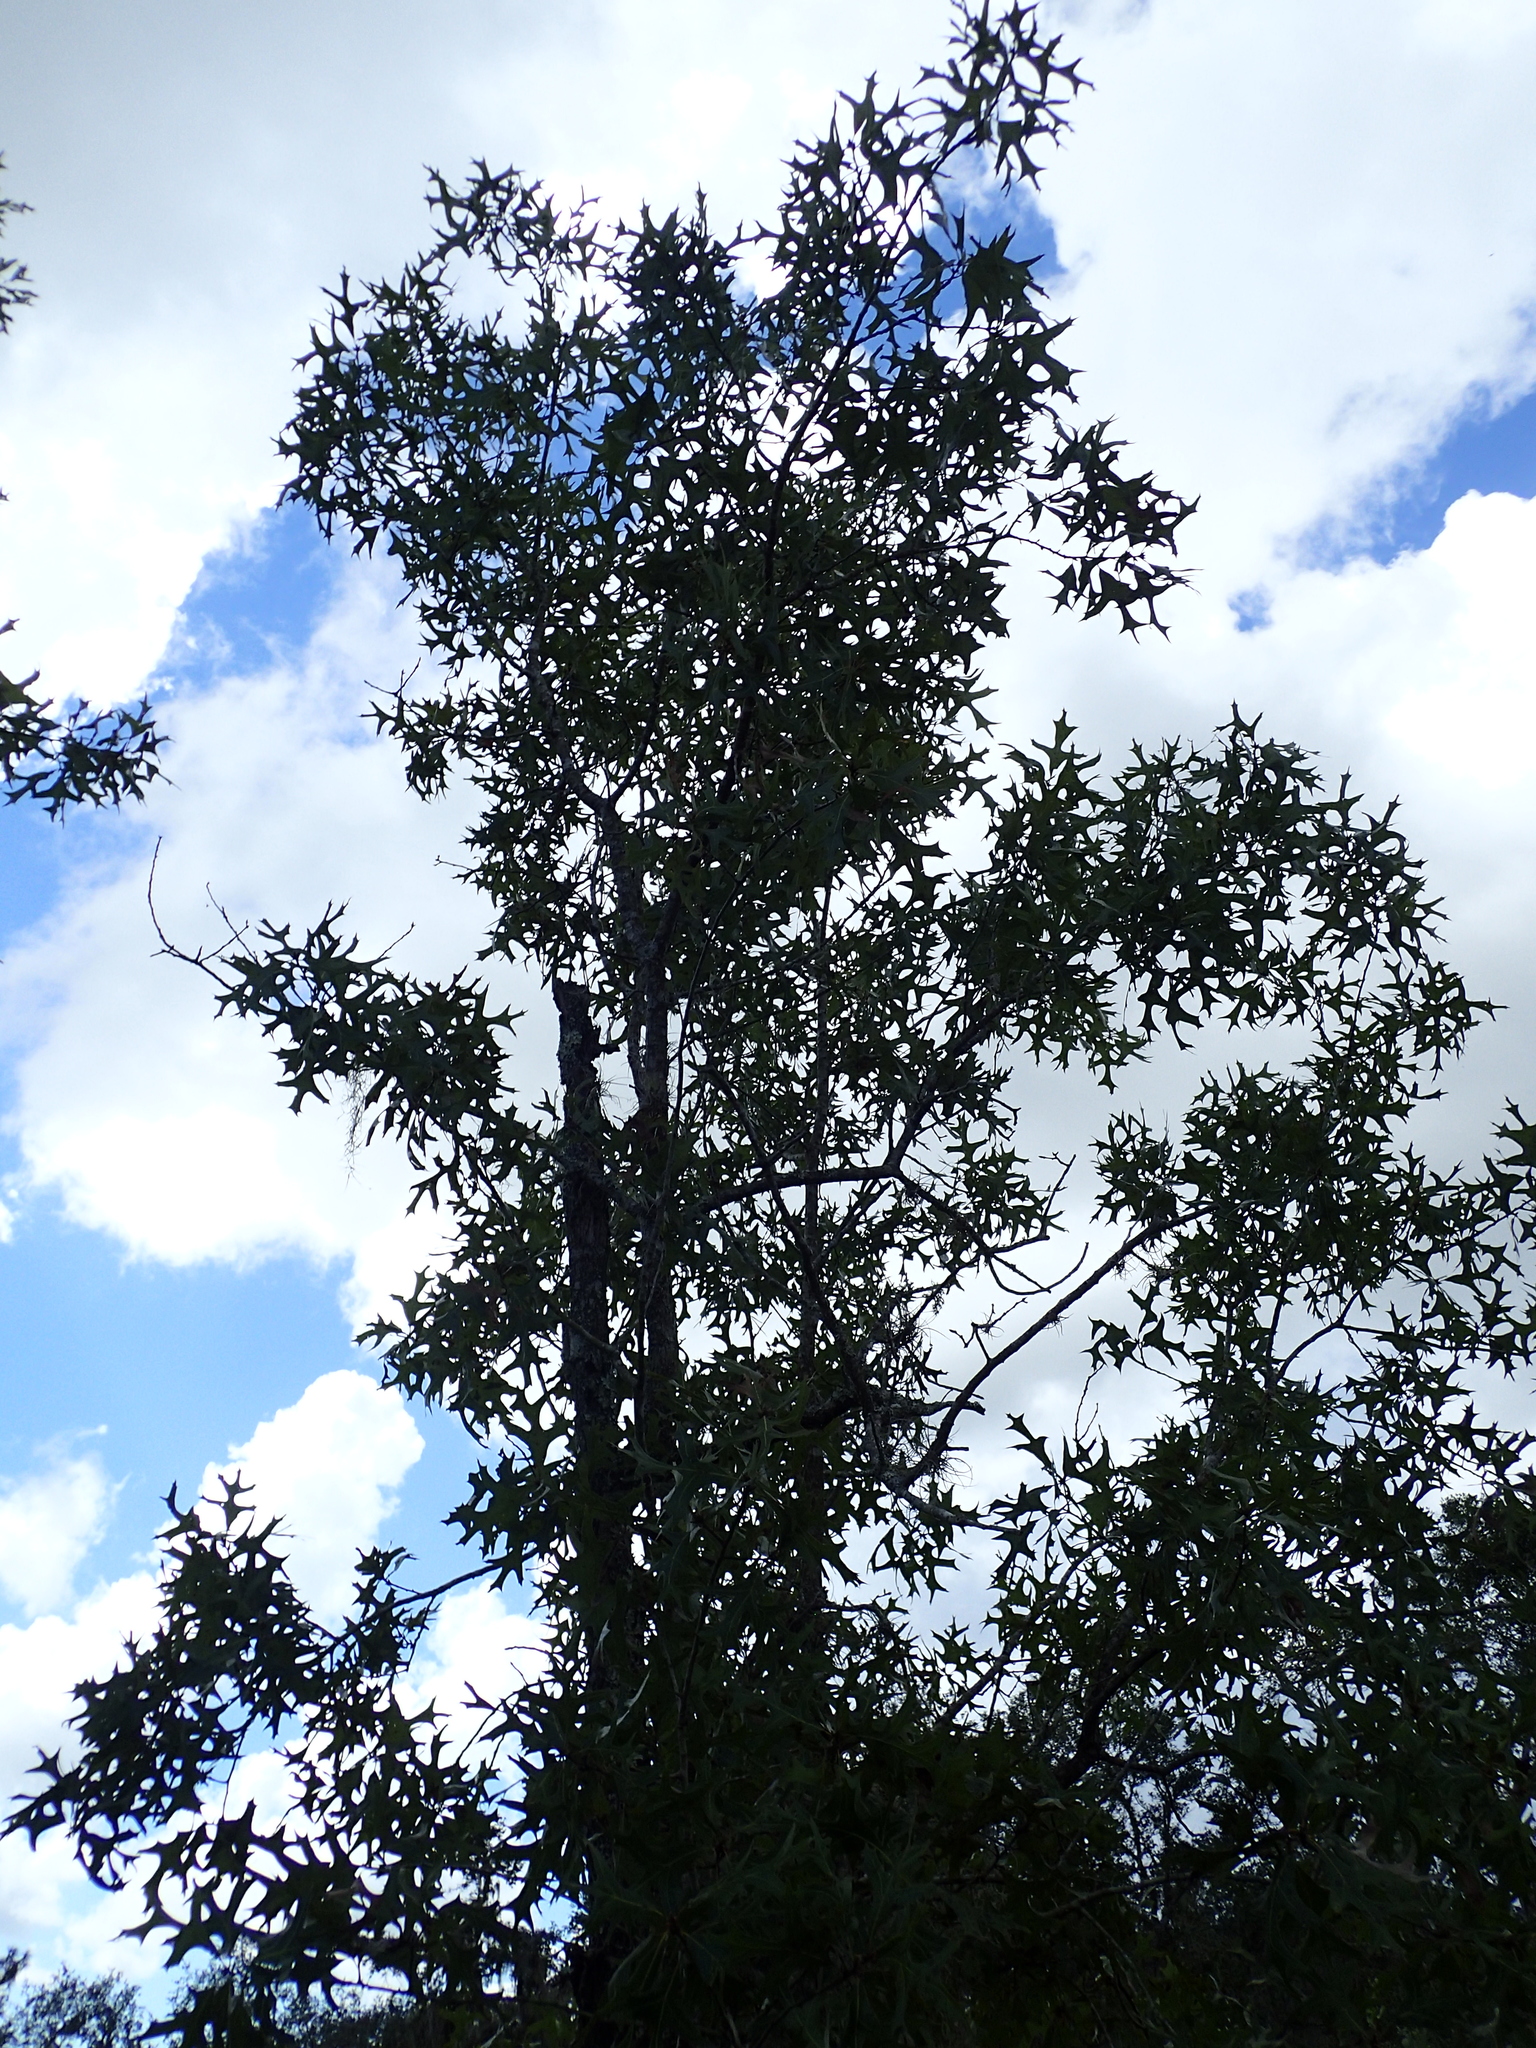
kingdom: Plantae
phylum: Tracheophyta
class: Magnoliopsida
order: Fagales
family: Fagaceae
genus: Quercus
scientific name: Quercus laevis
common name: Turkey oak
